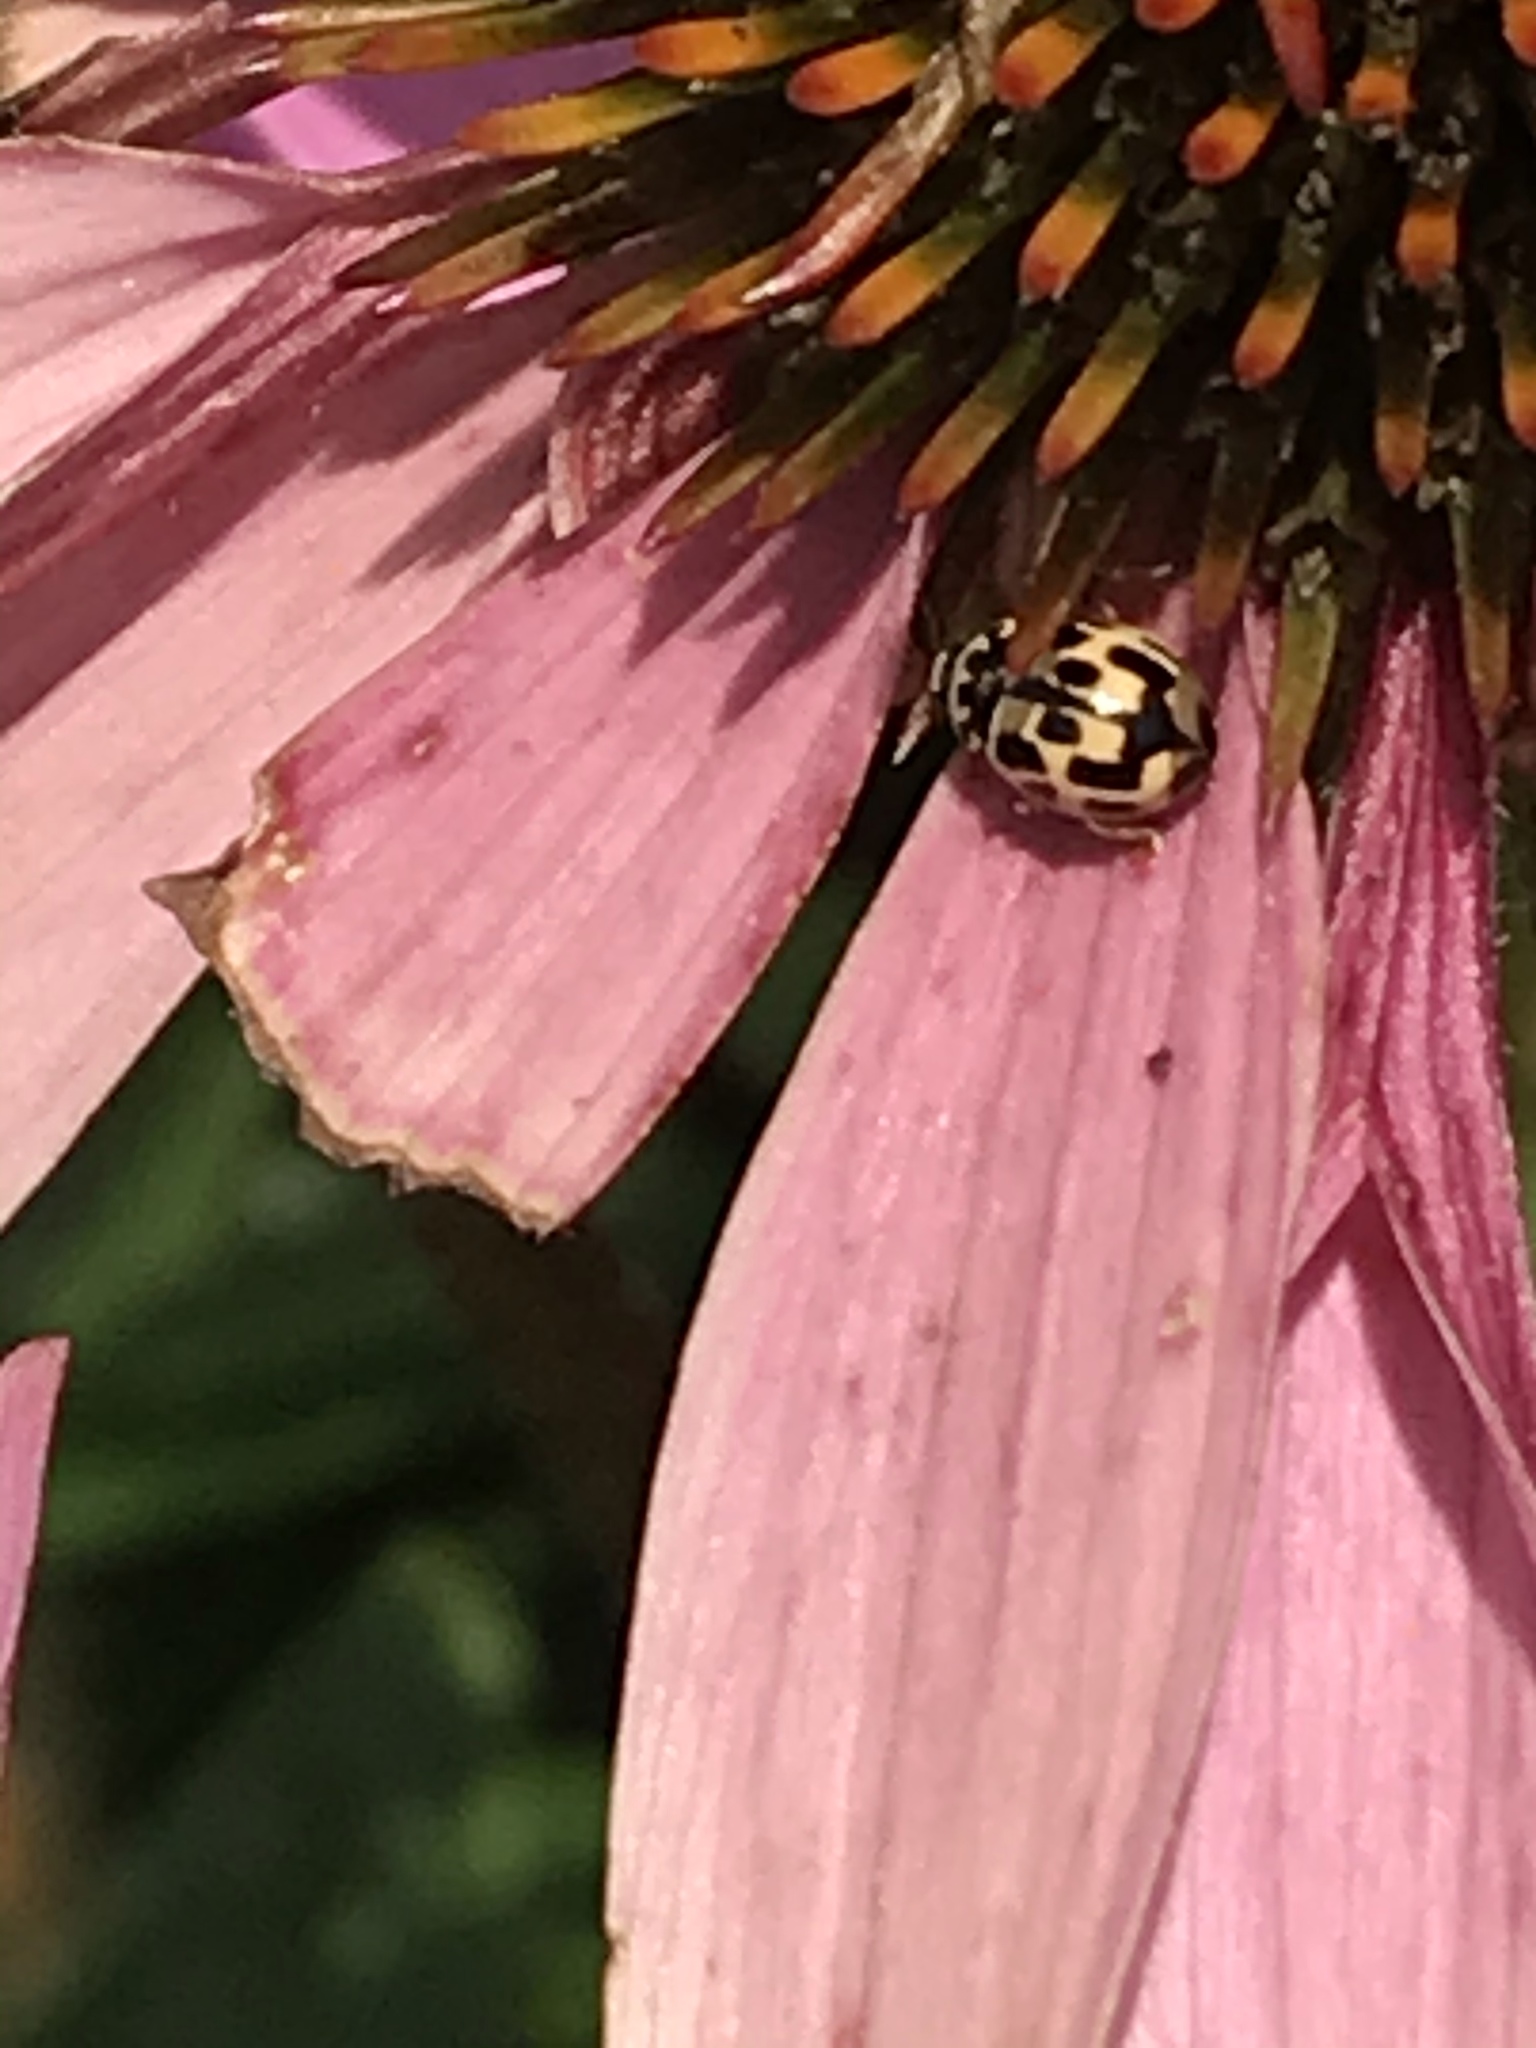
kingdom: Animalia
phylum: Arthropoda
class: Insecta
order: Coleoptera
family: Coccinellidae
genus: Propylaea
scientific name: Propylaea quatuordecimpunctata
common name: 14-spotted ladybird beetle
